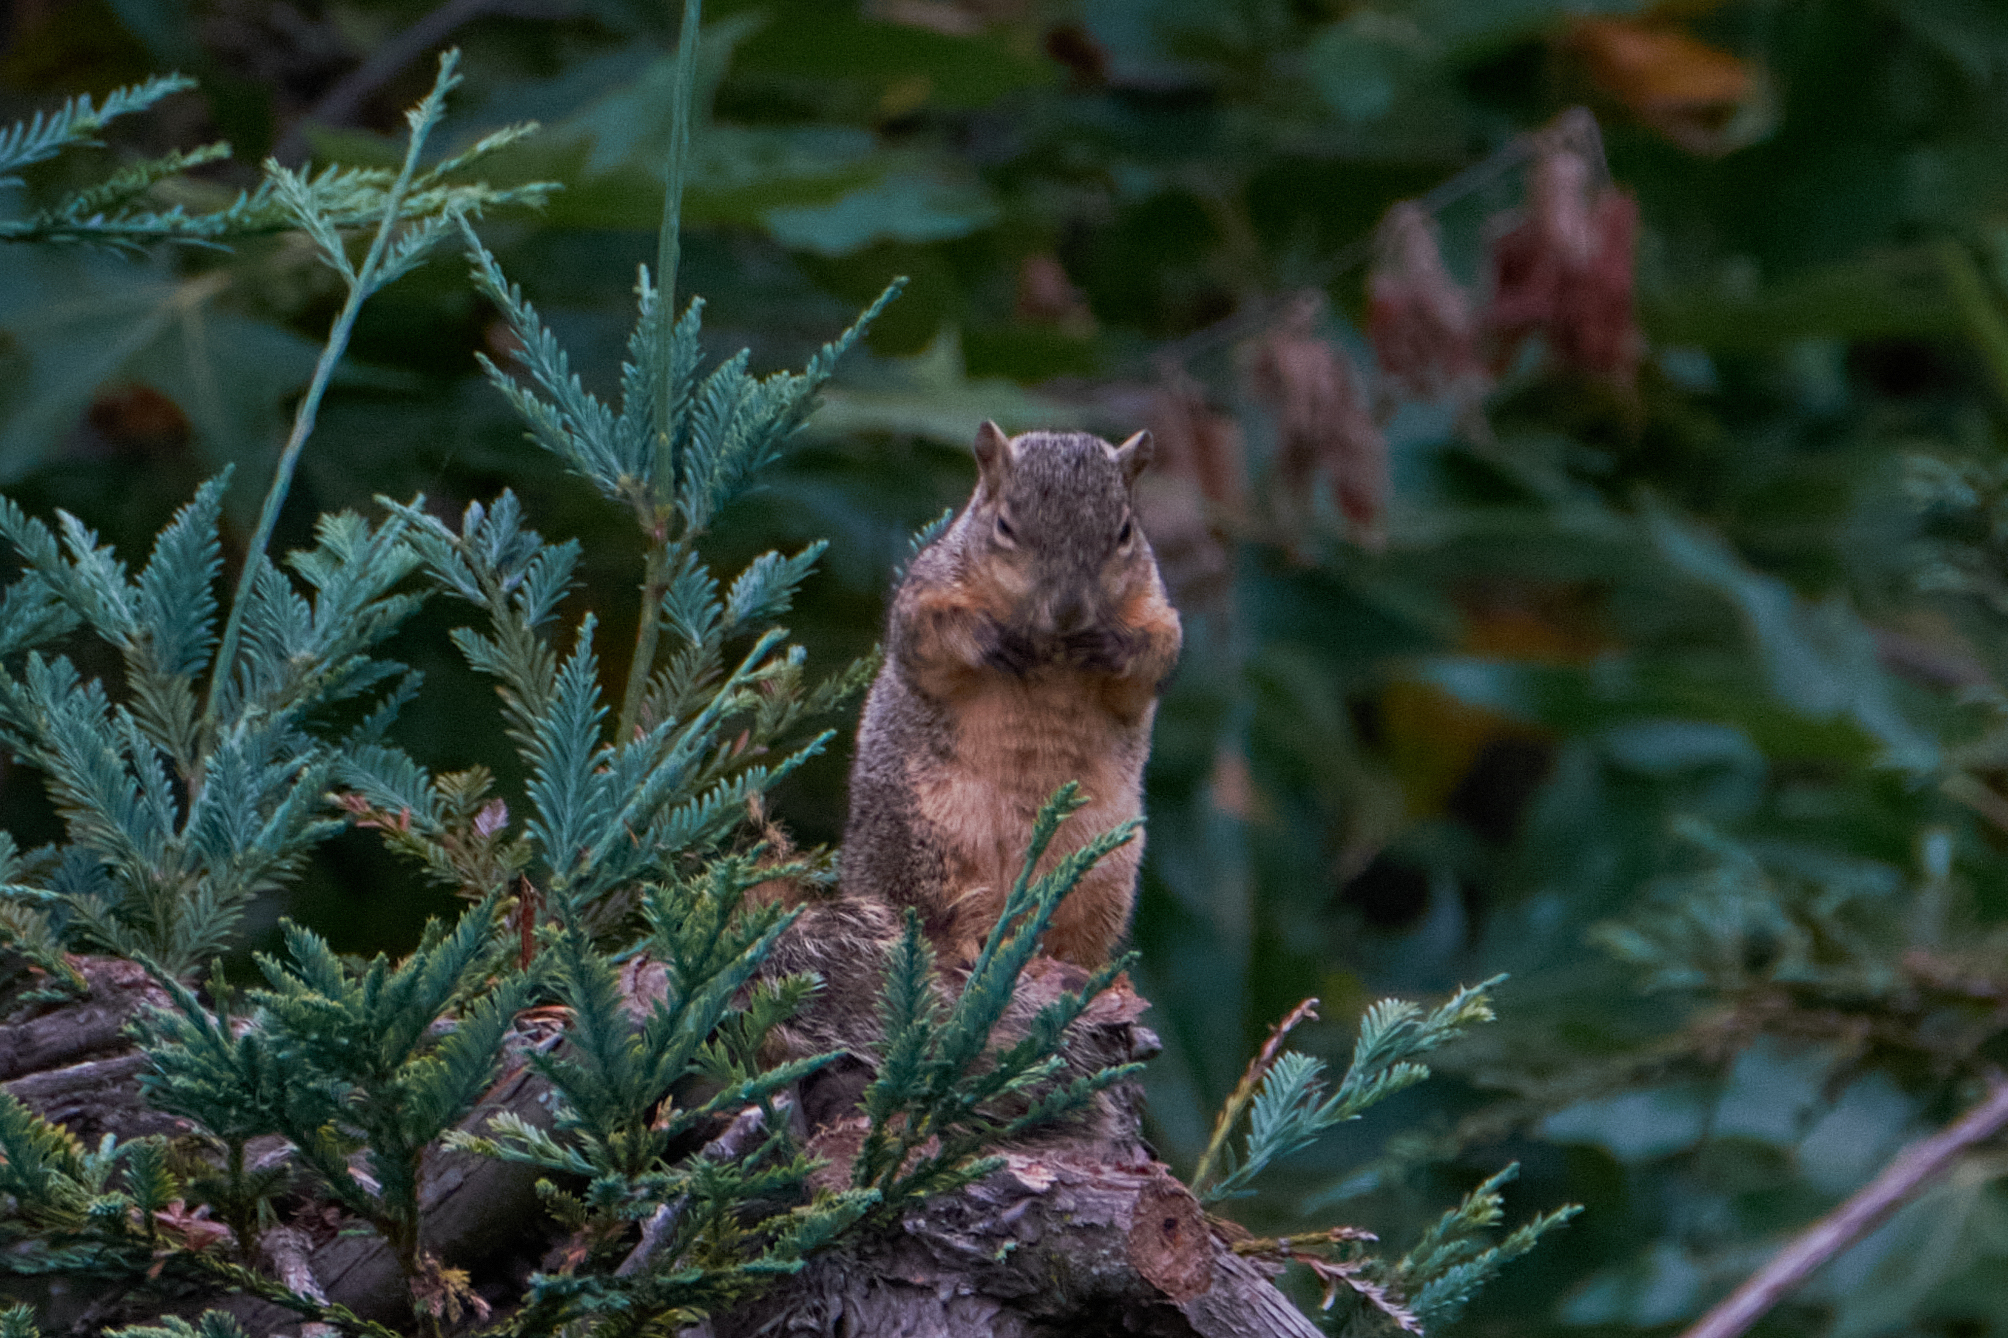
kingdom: Animalia
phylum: Chordata
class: Mammalia
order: Rodentia
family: Sciuridae
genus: Sciurus
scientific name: Sciurus niger
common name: Fox squirrel
